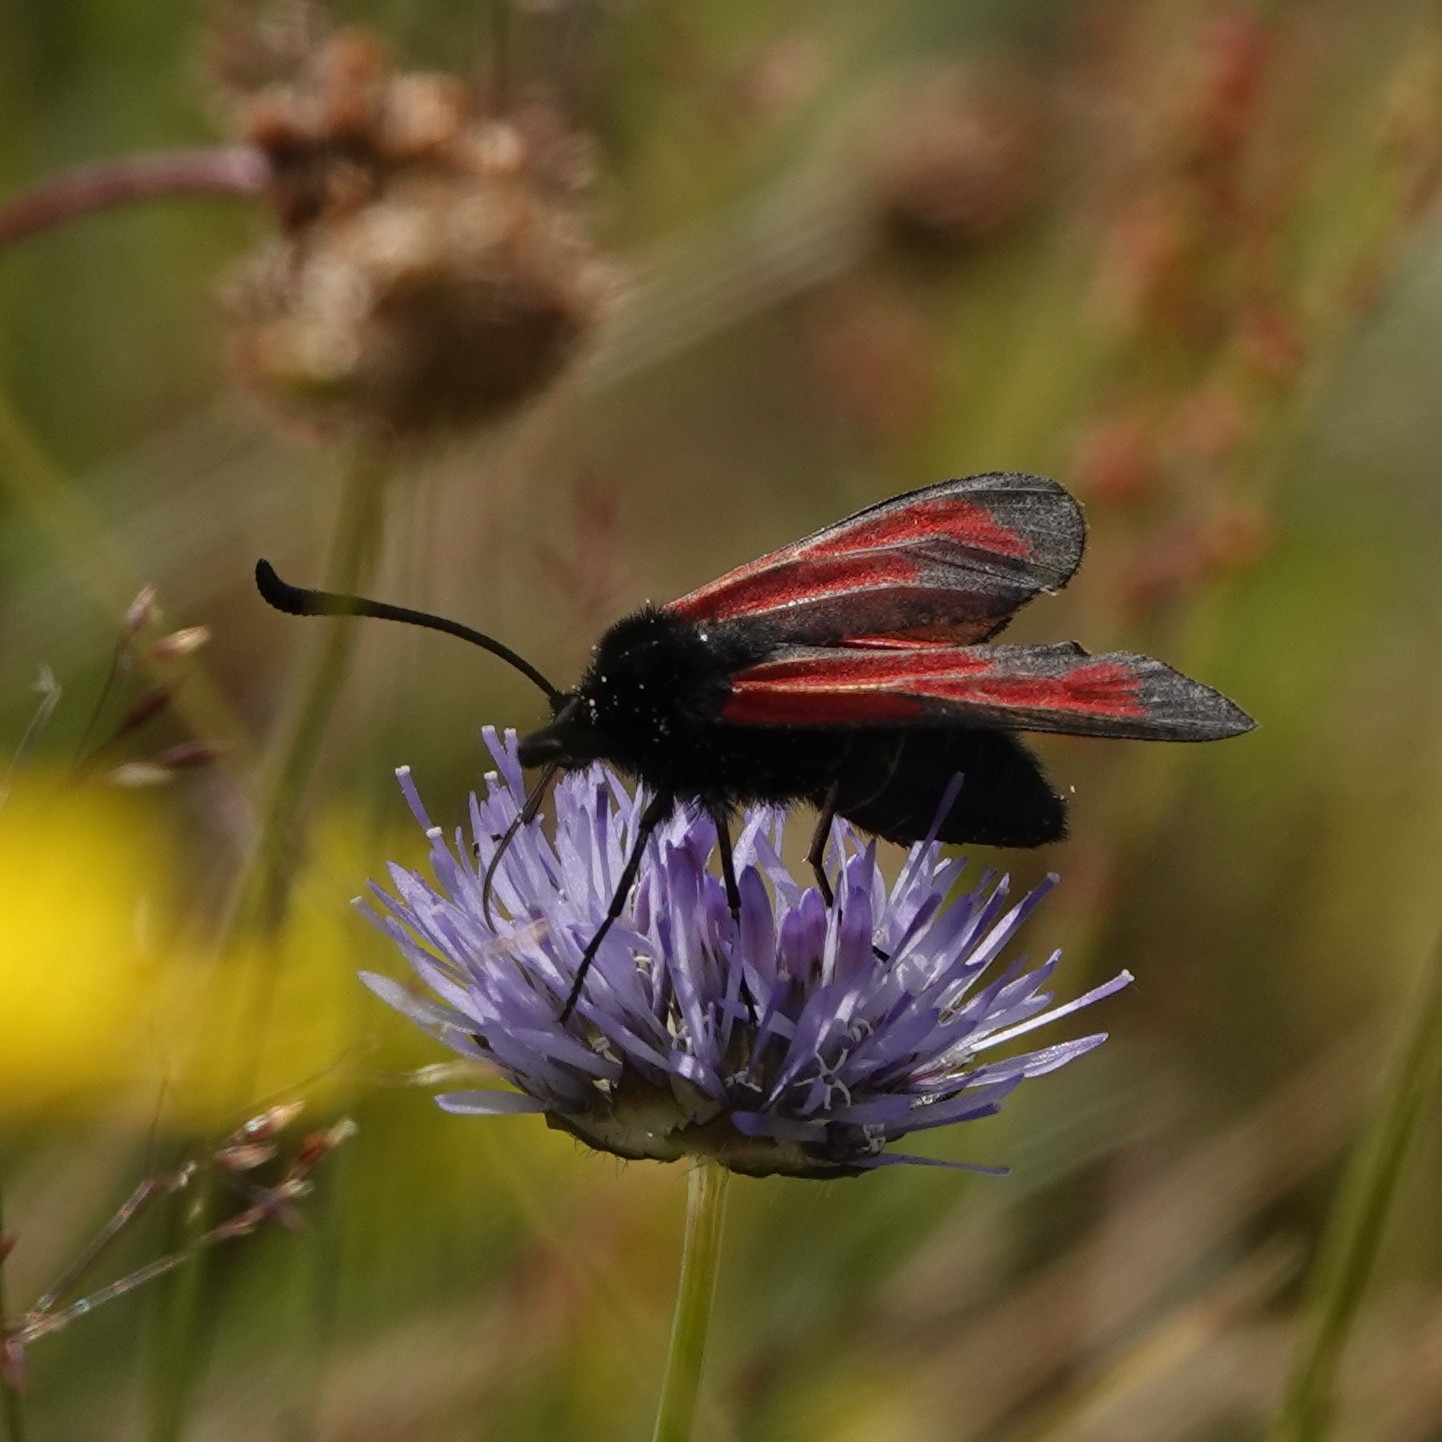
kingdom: Animalia
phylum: Arthropoda
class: Insecta
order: Lepidoptera
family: Zygaenidae
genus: Zygaena
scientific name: Zygaena minos
